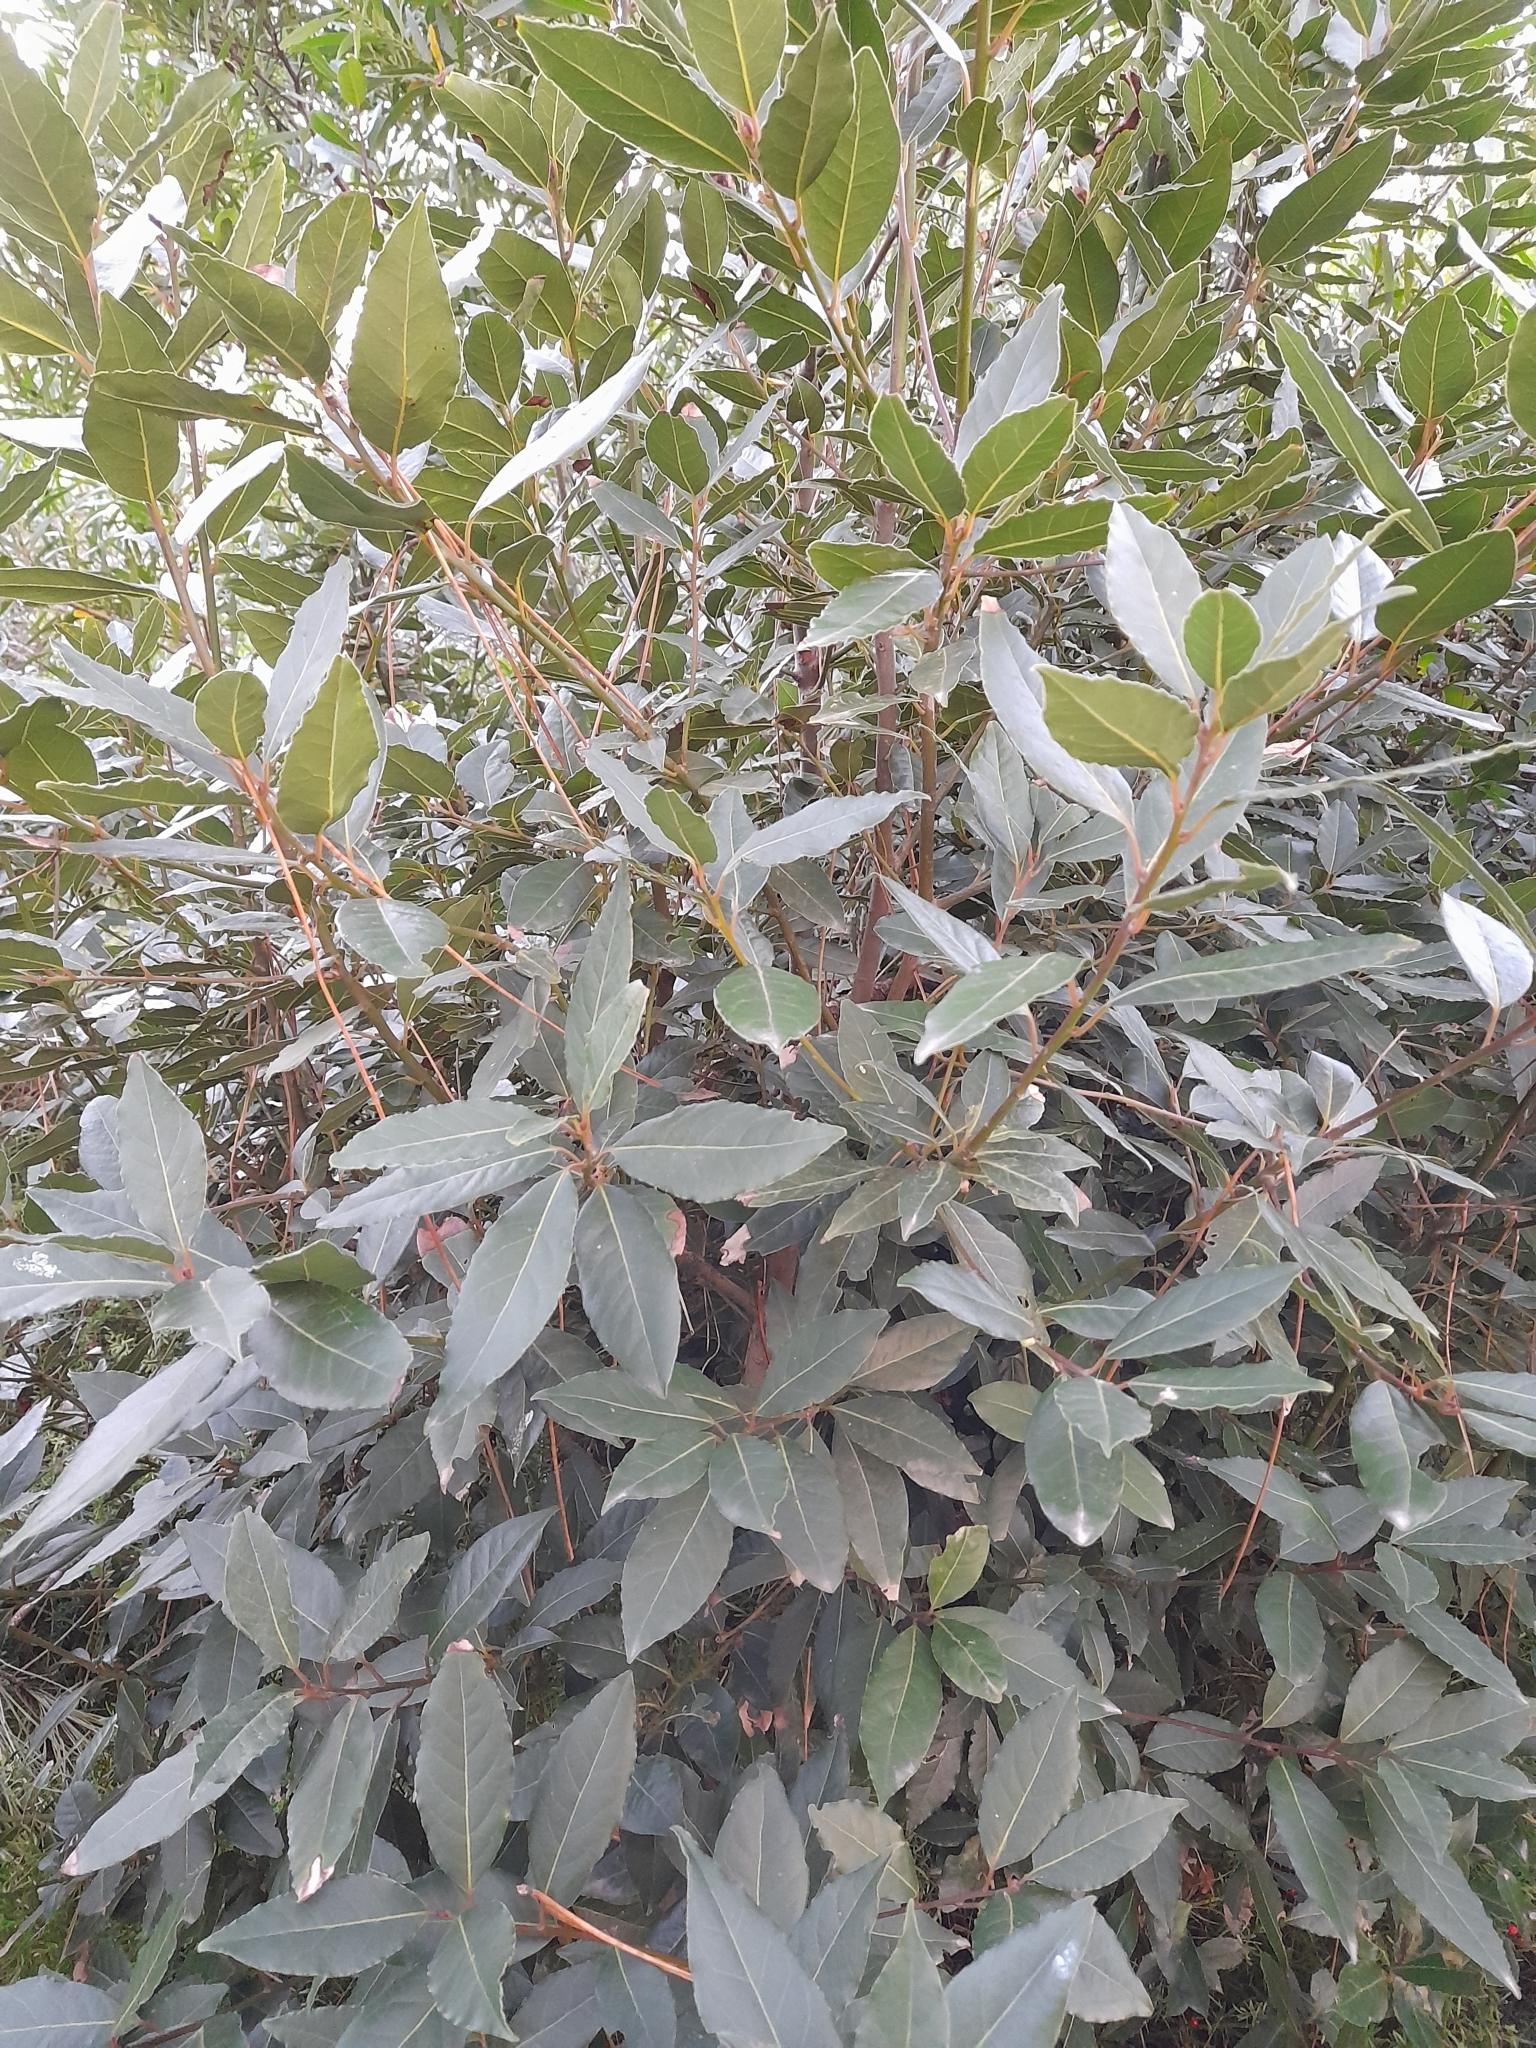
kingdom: Plantae
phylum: Tracheophyta
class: Magnoliopsida
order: Laurales
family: Lauraceae
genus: Laurus
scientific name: Laurus nobilis
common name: Bay
